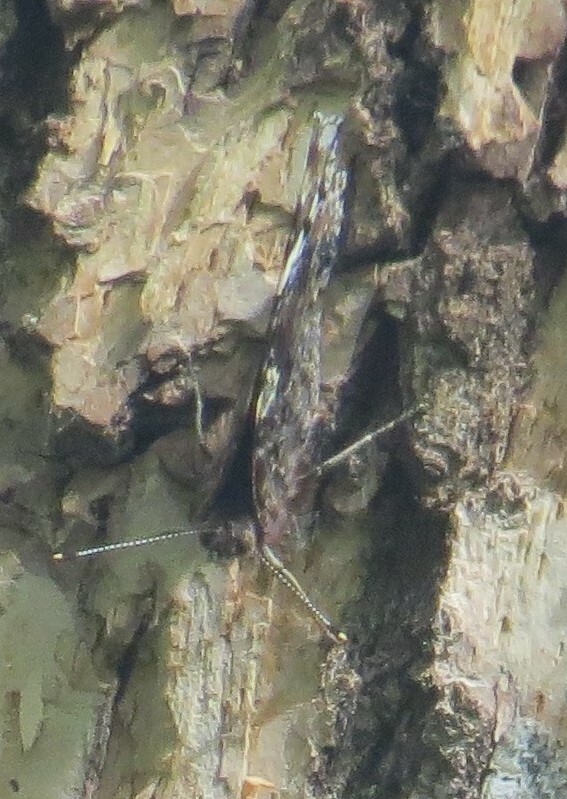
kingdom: Animalia
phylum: Arthropoda
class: Insecta
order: Lepidoptera
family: Nymphalidae
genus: Vanessa
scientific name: Vanessa atalanta
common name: Red admiral
